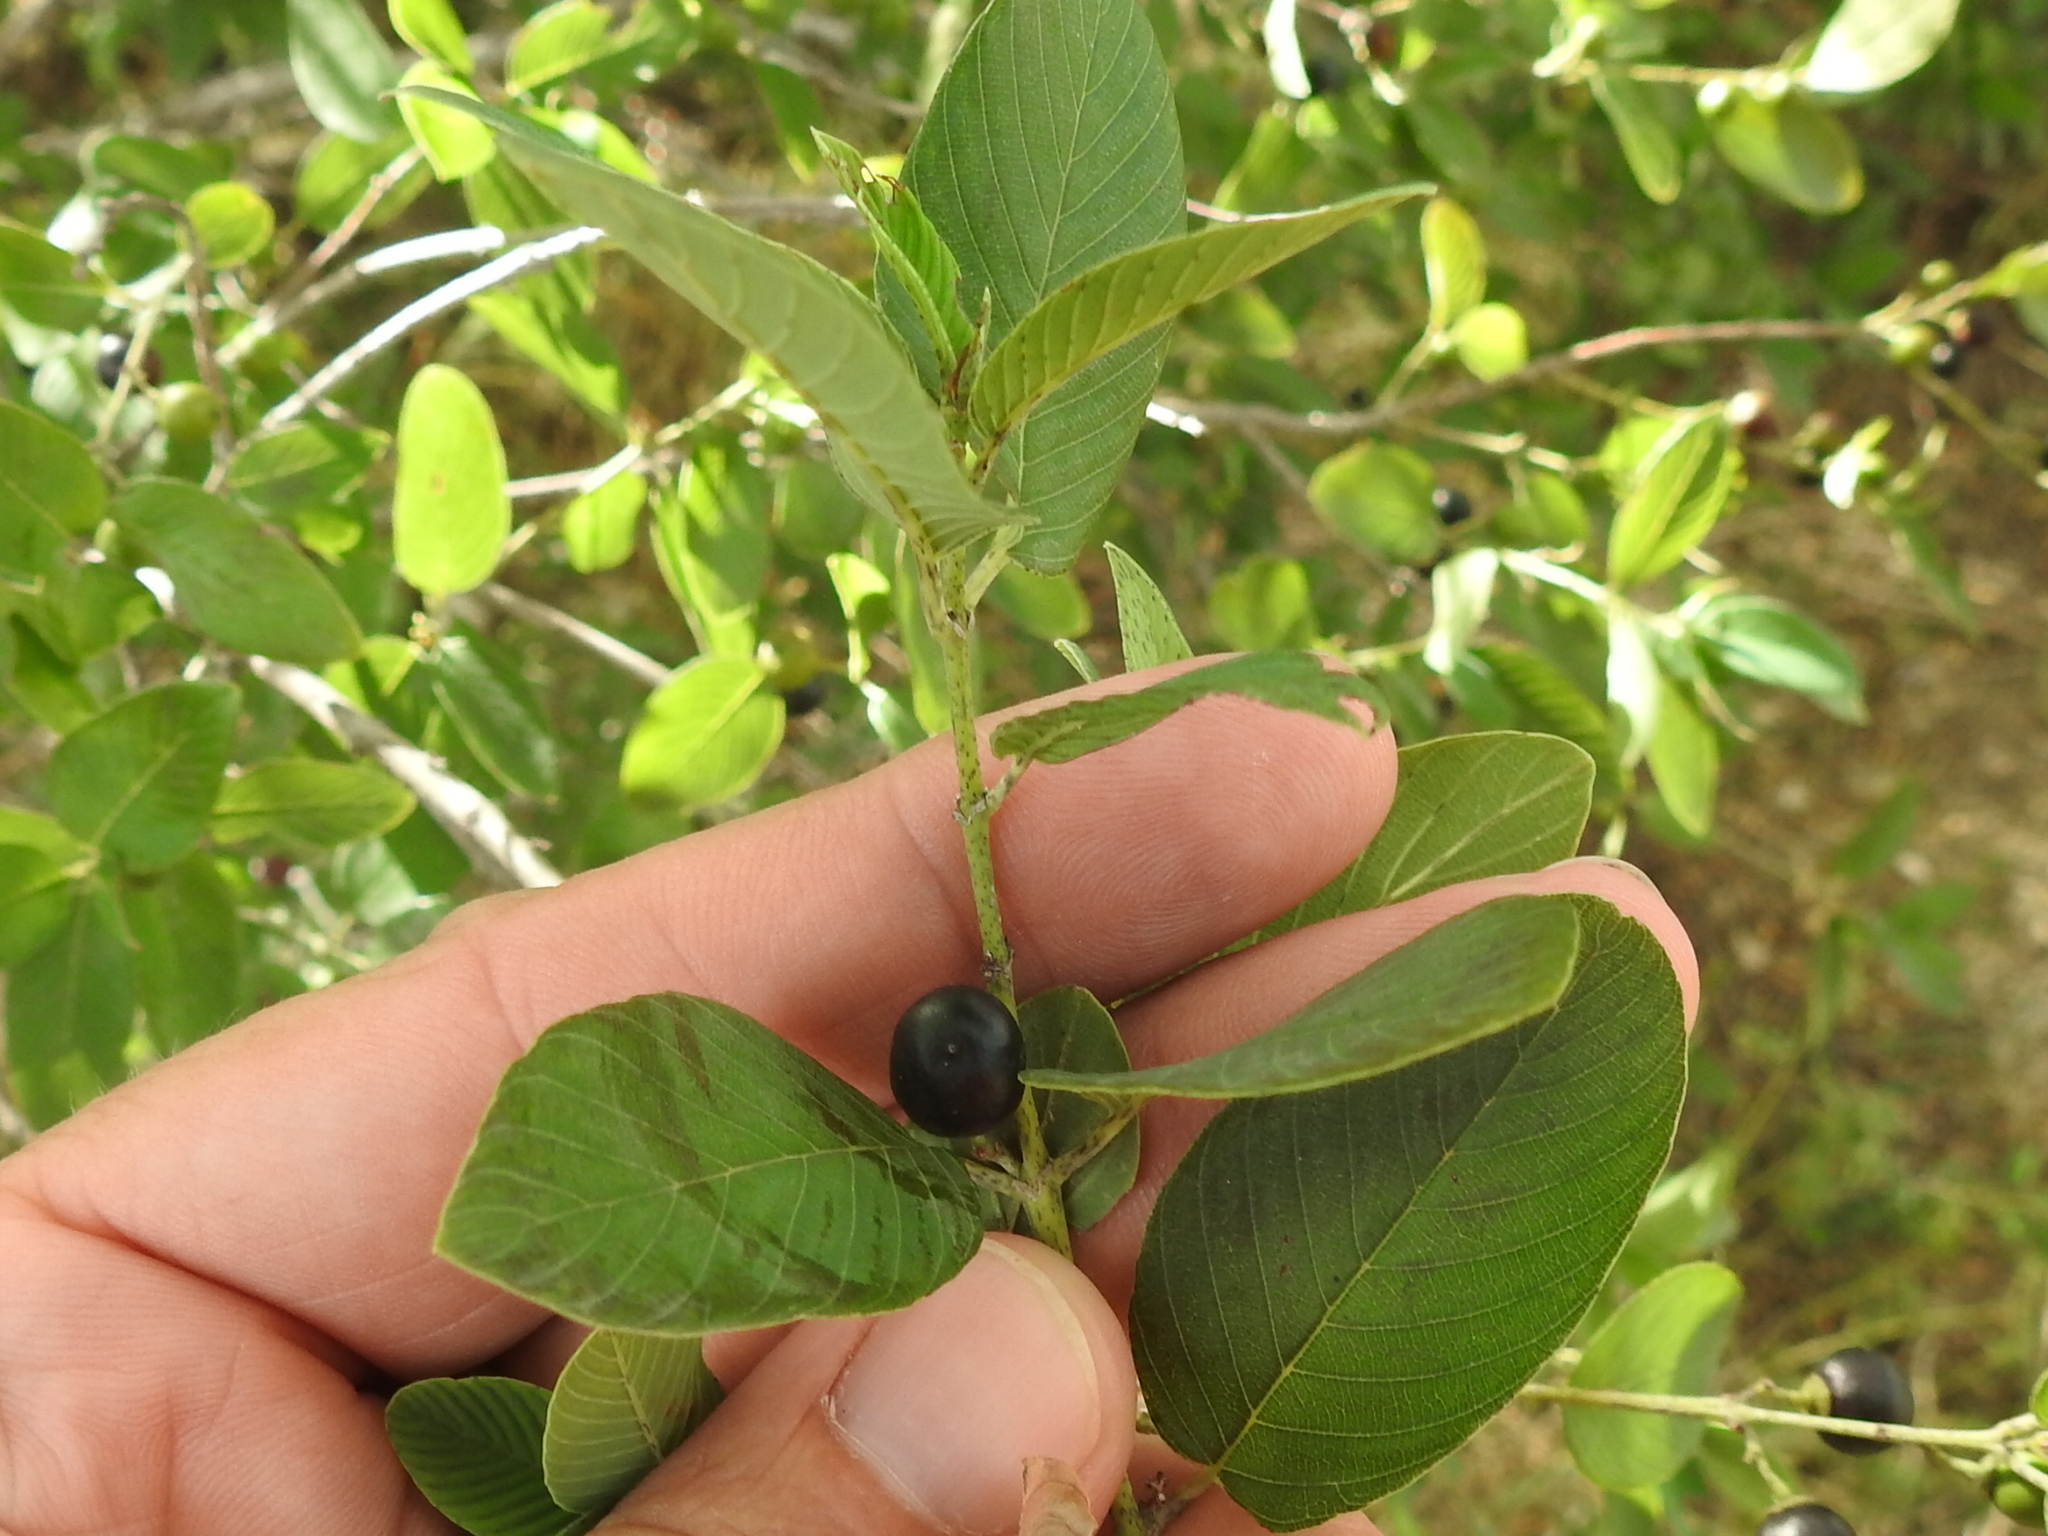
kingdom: Plantae
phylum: Tracheophyta
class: Magnoliopsida
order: Rosales
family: Rhamnaceae
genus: Karwinskia
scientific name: Karwinskia humboldtiana
